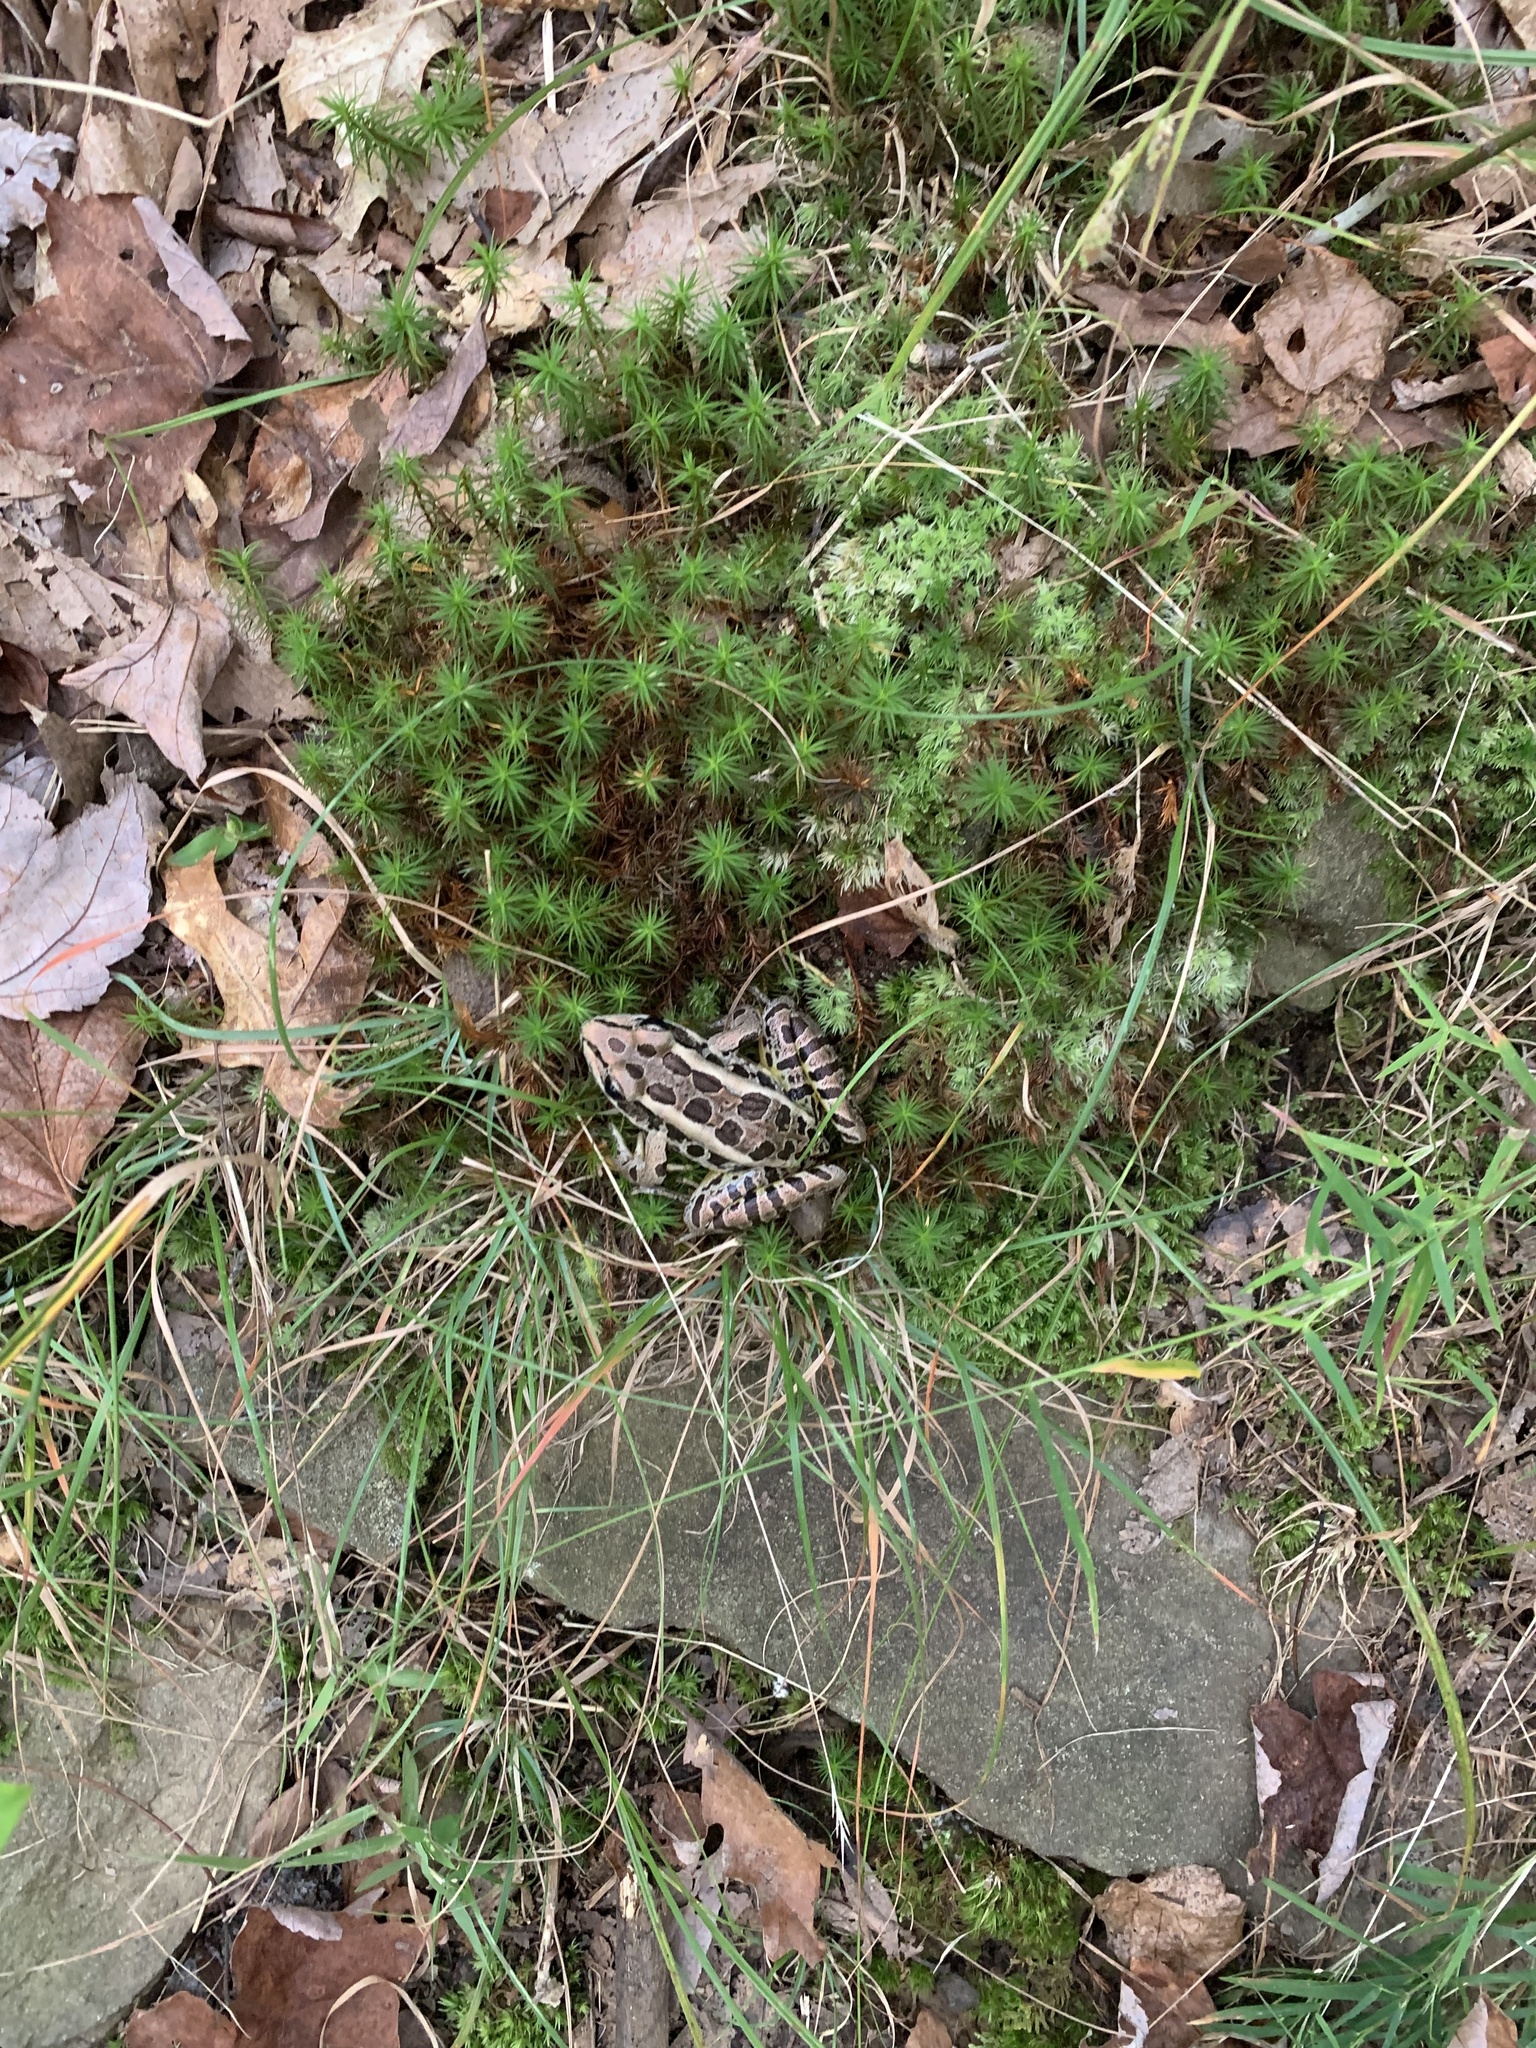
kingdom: Animalia
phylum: Chordata
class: Amphibia
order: Anura
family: Ranidae
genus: Lithobates
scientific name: Lithobates palustris
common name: Pickerel frog
